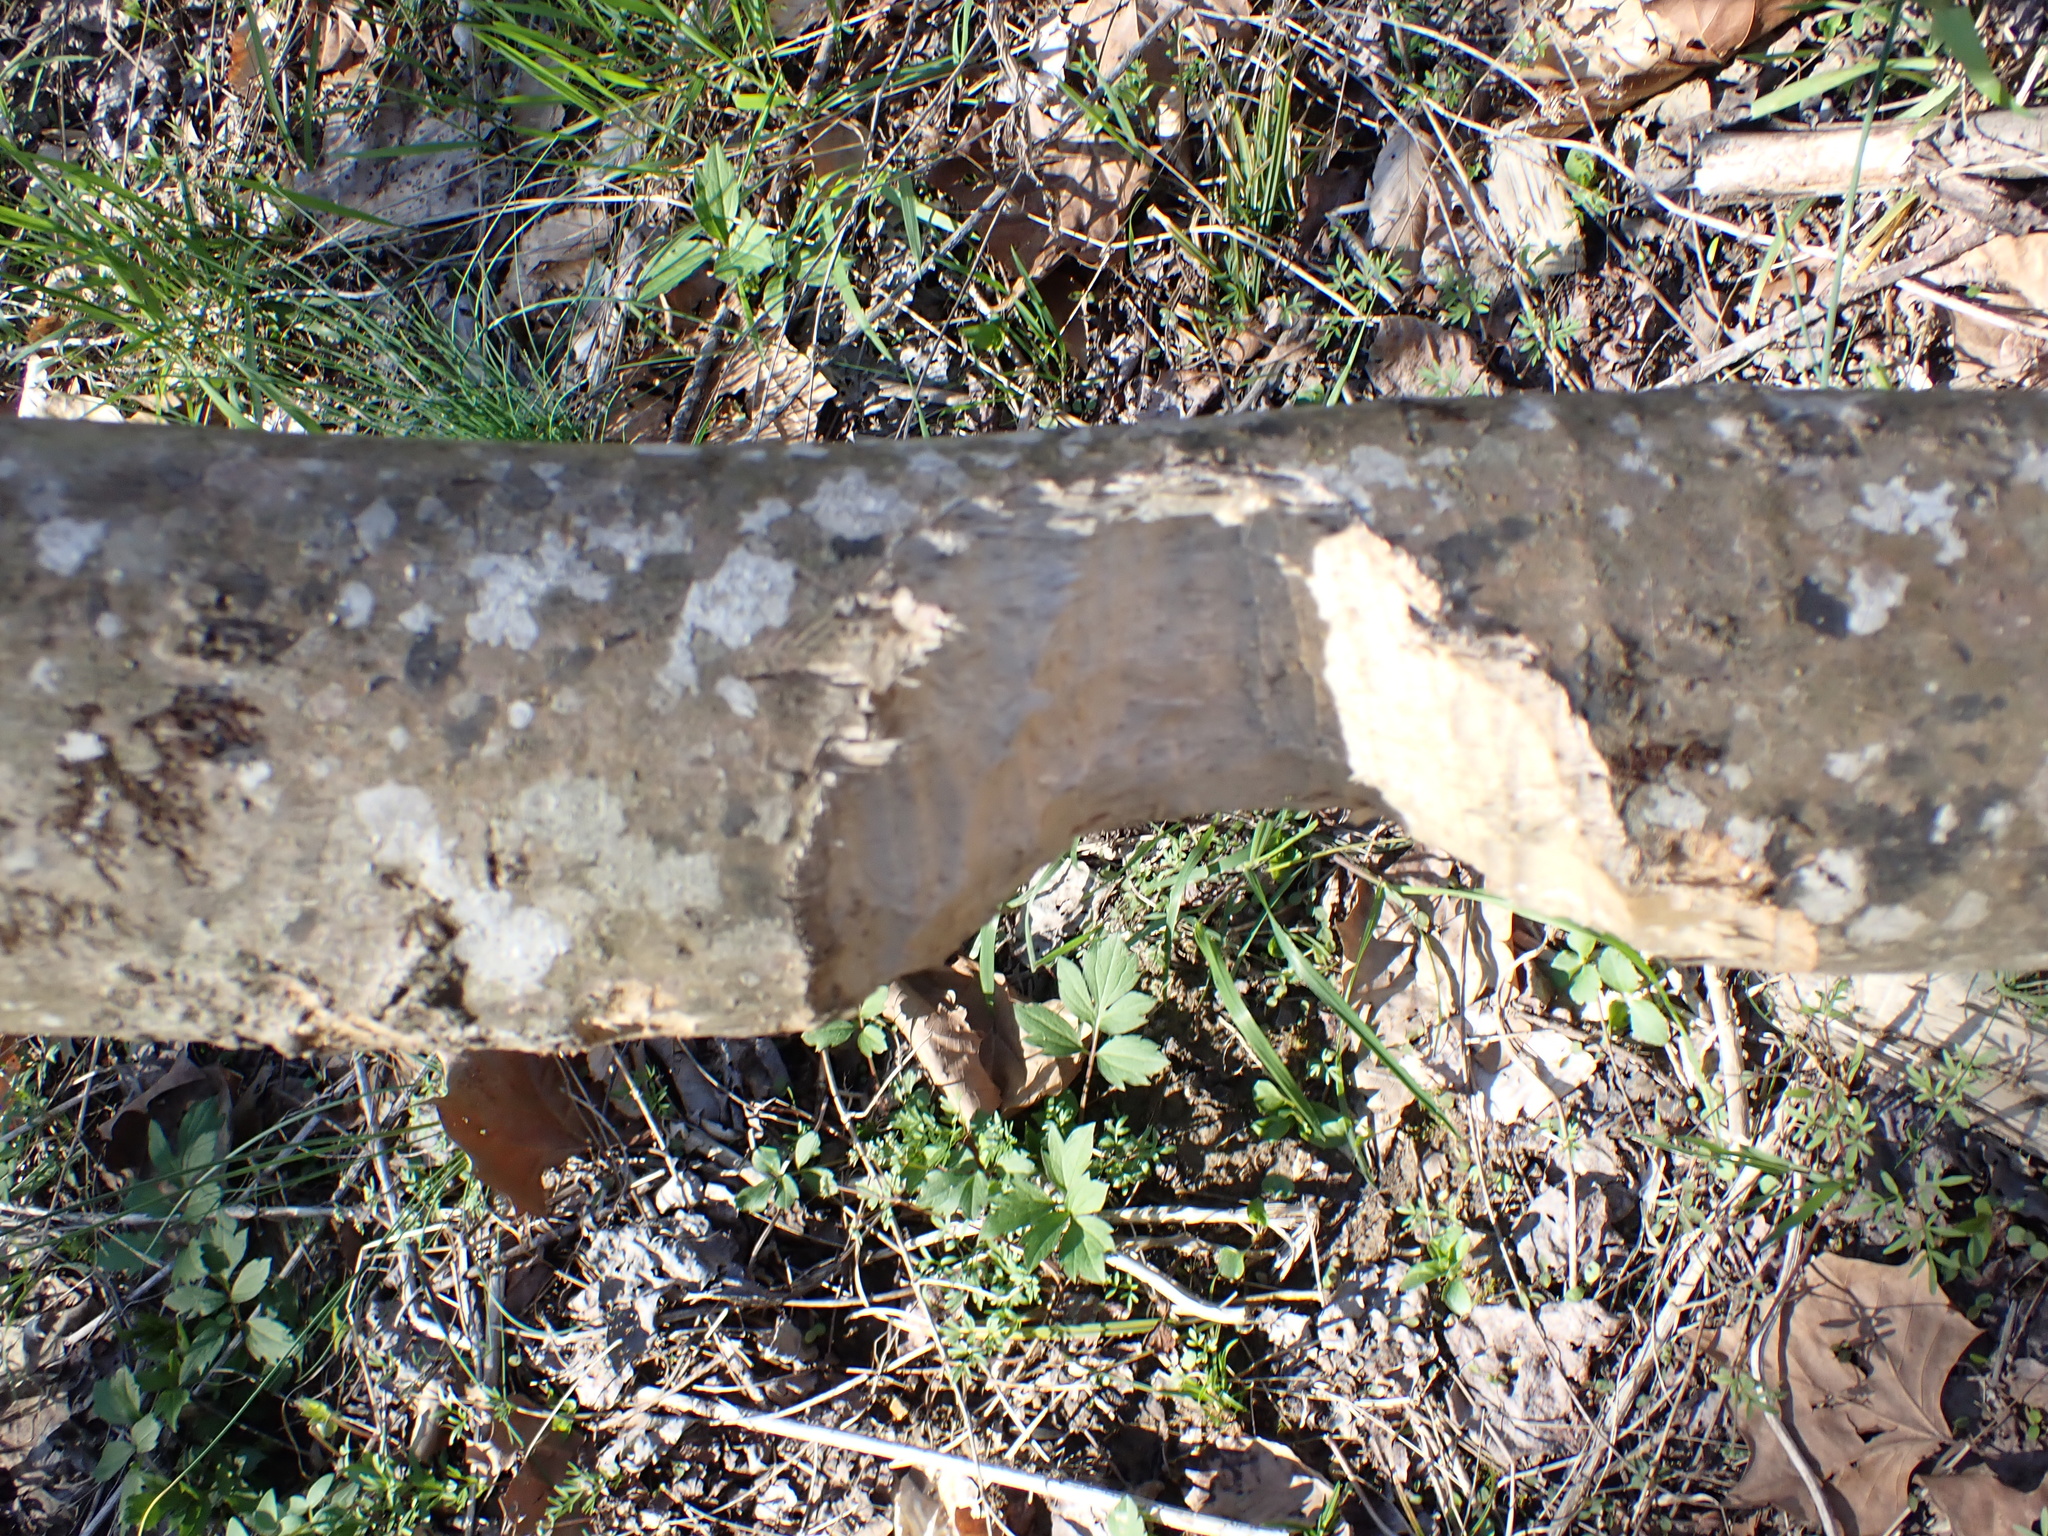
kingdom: Animalia
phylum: Chordata
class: Mammalia
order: Rodentia
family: Castoridae
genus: Castor
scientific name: Castor canadensis
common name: American beaver
